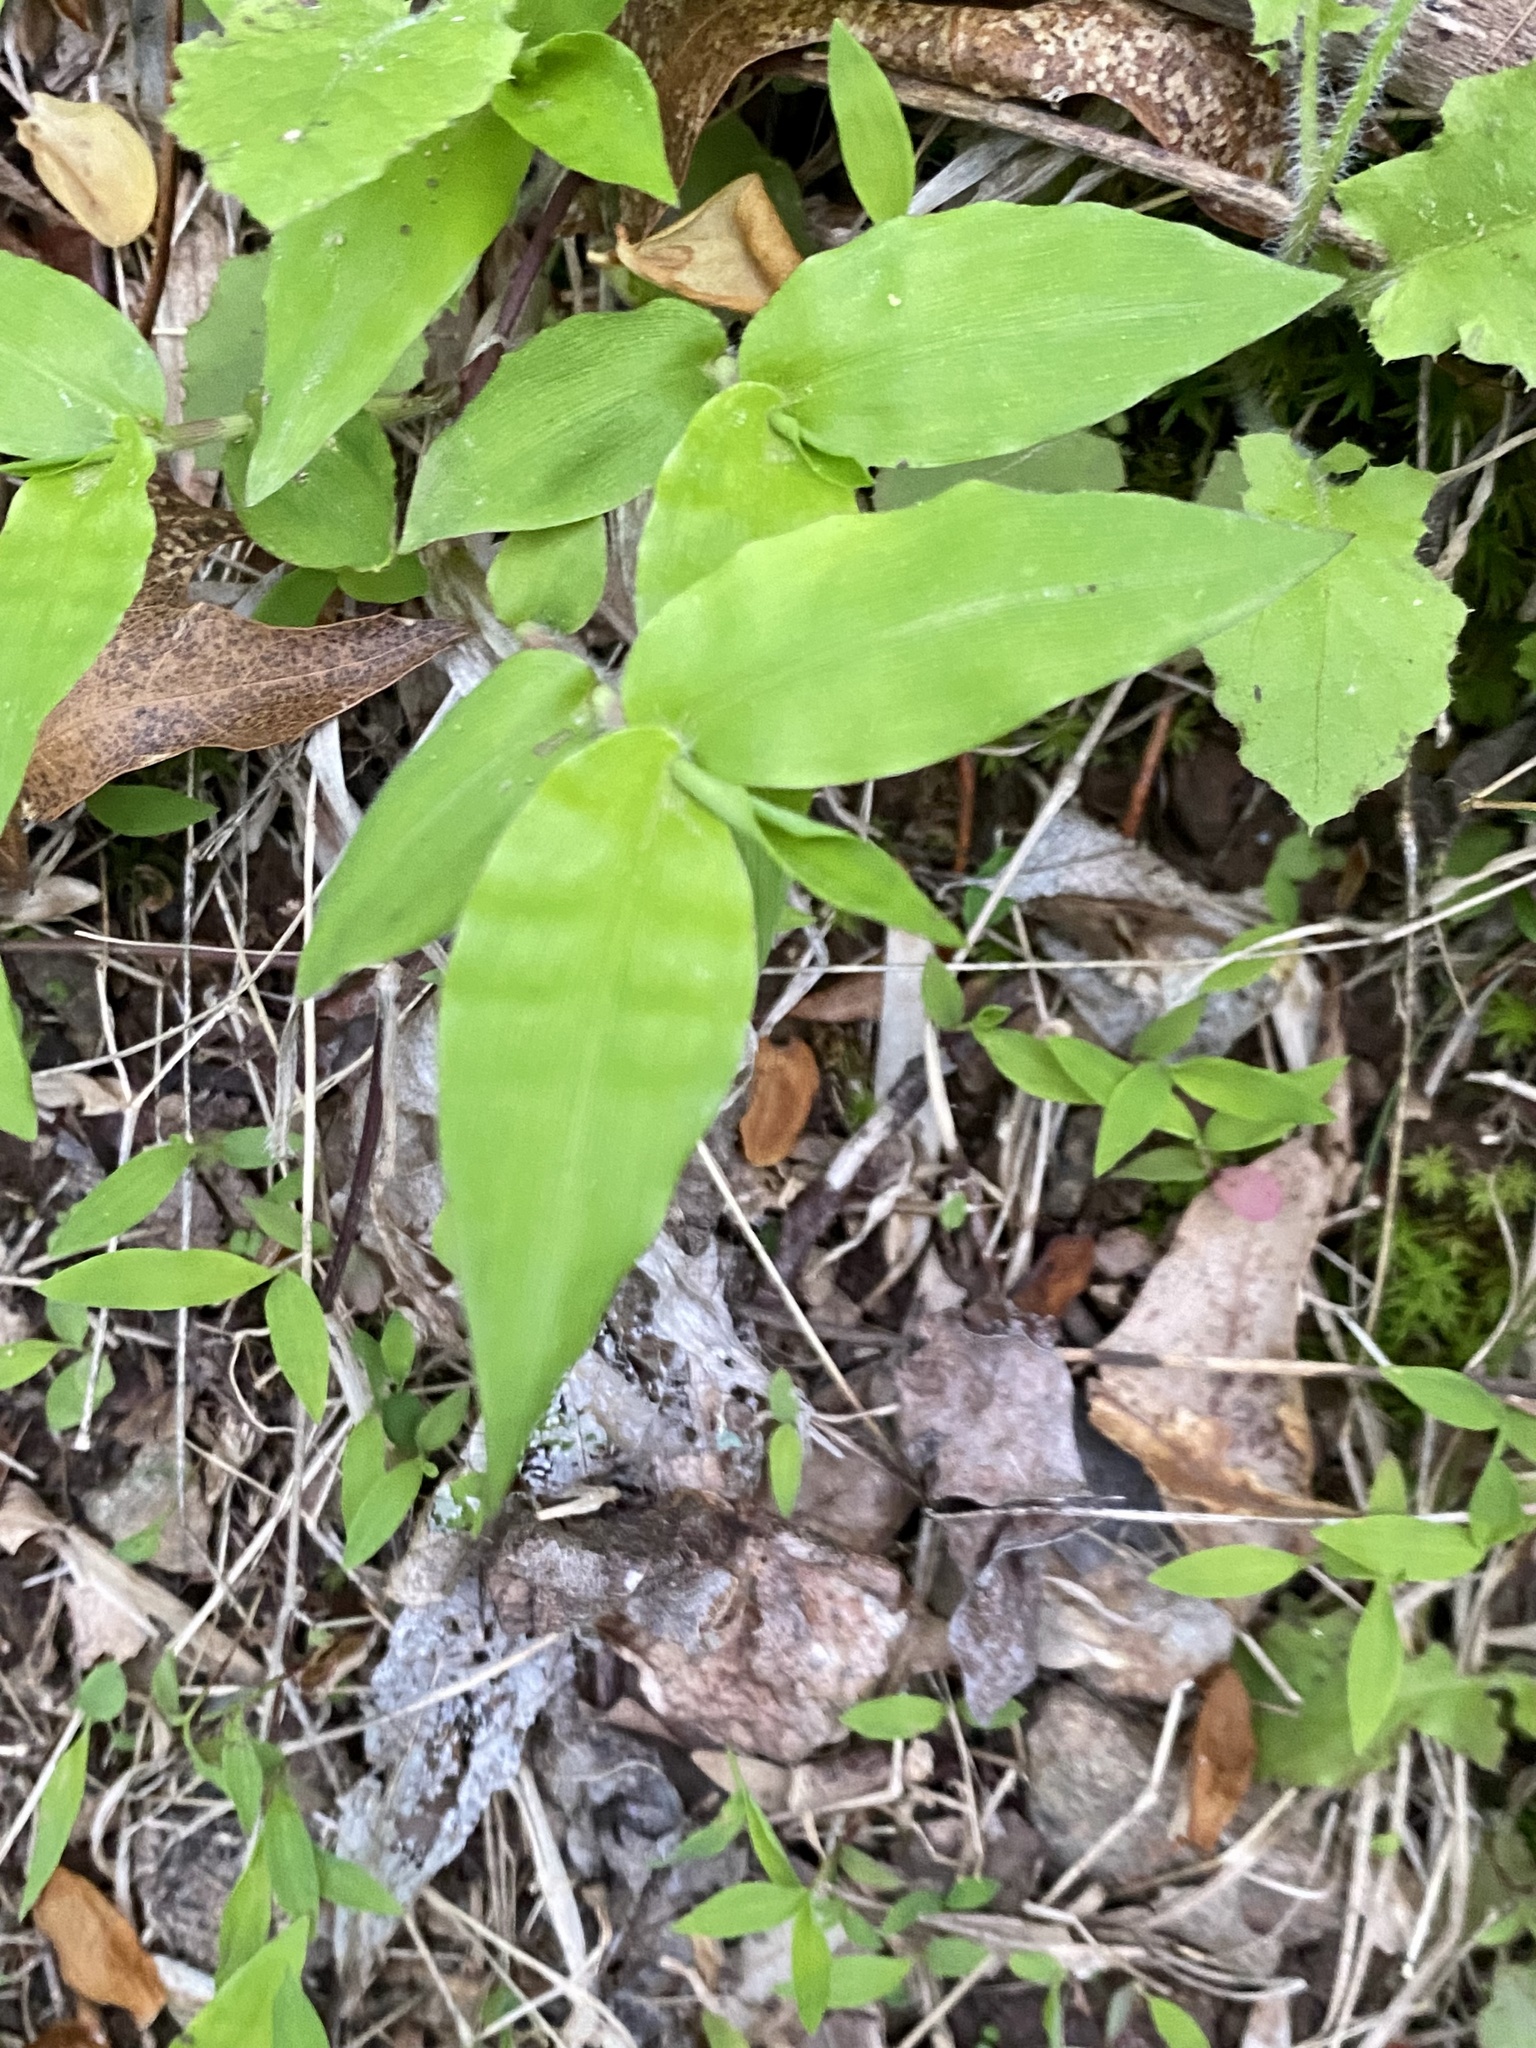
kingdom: Plantae
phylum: Tracheophyta
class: Liliopsida
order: Poales
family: Poaceae
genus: Oplismenus
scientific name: Oplismenus undulatifolius
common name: Wavyleaf basketgrass
